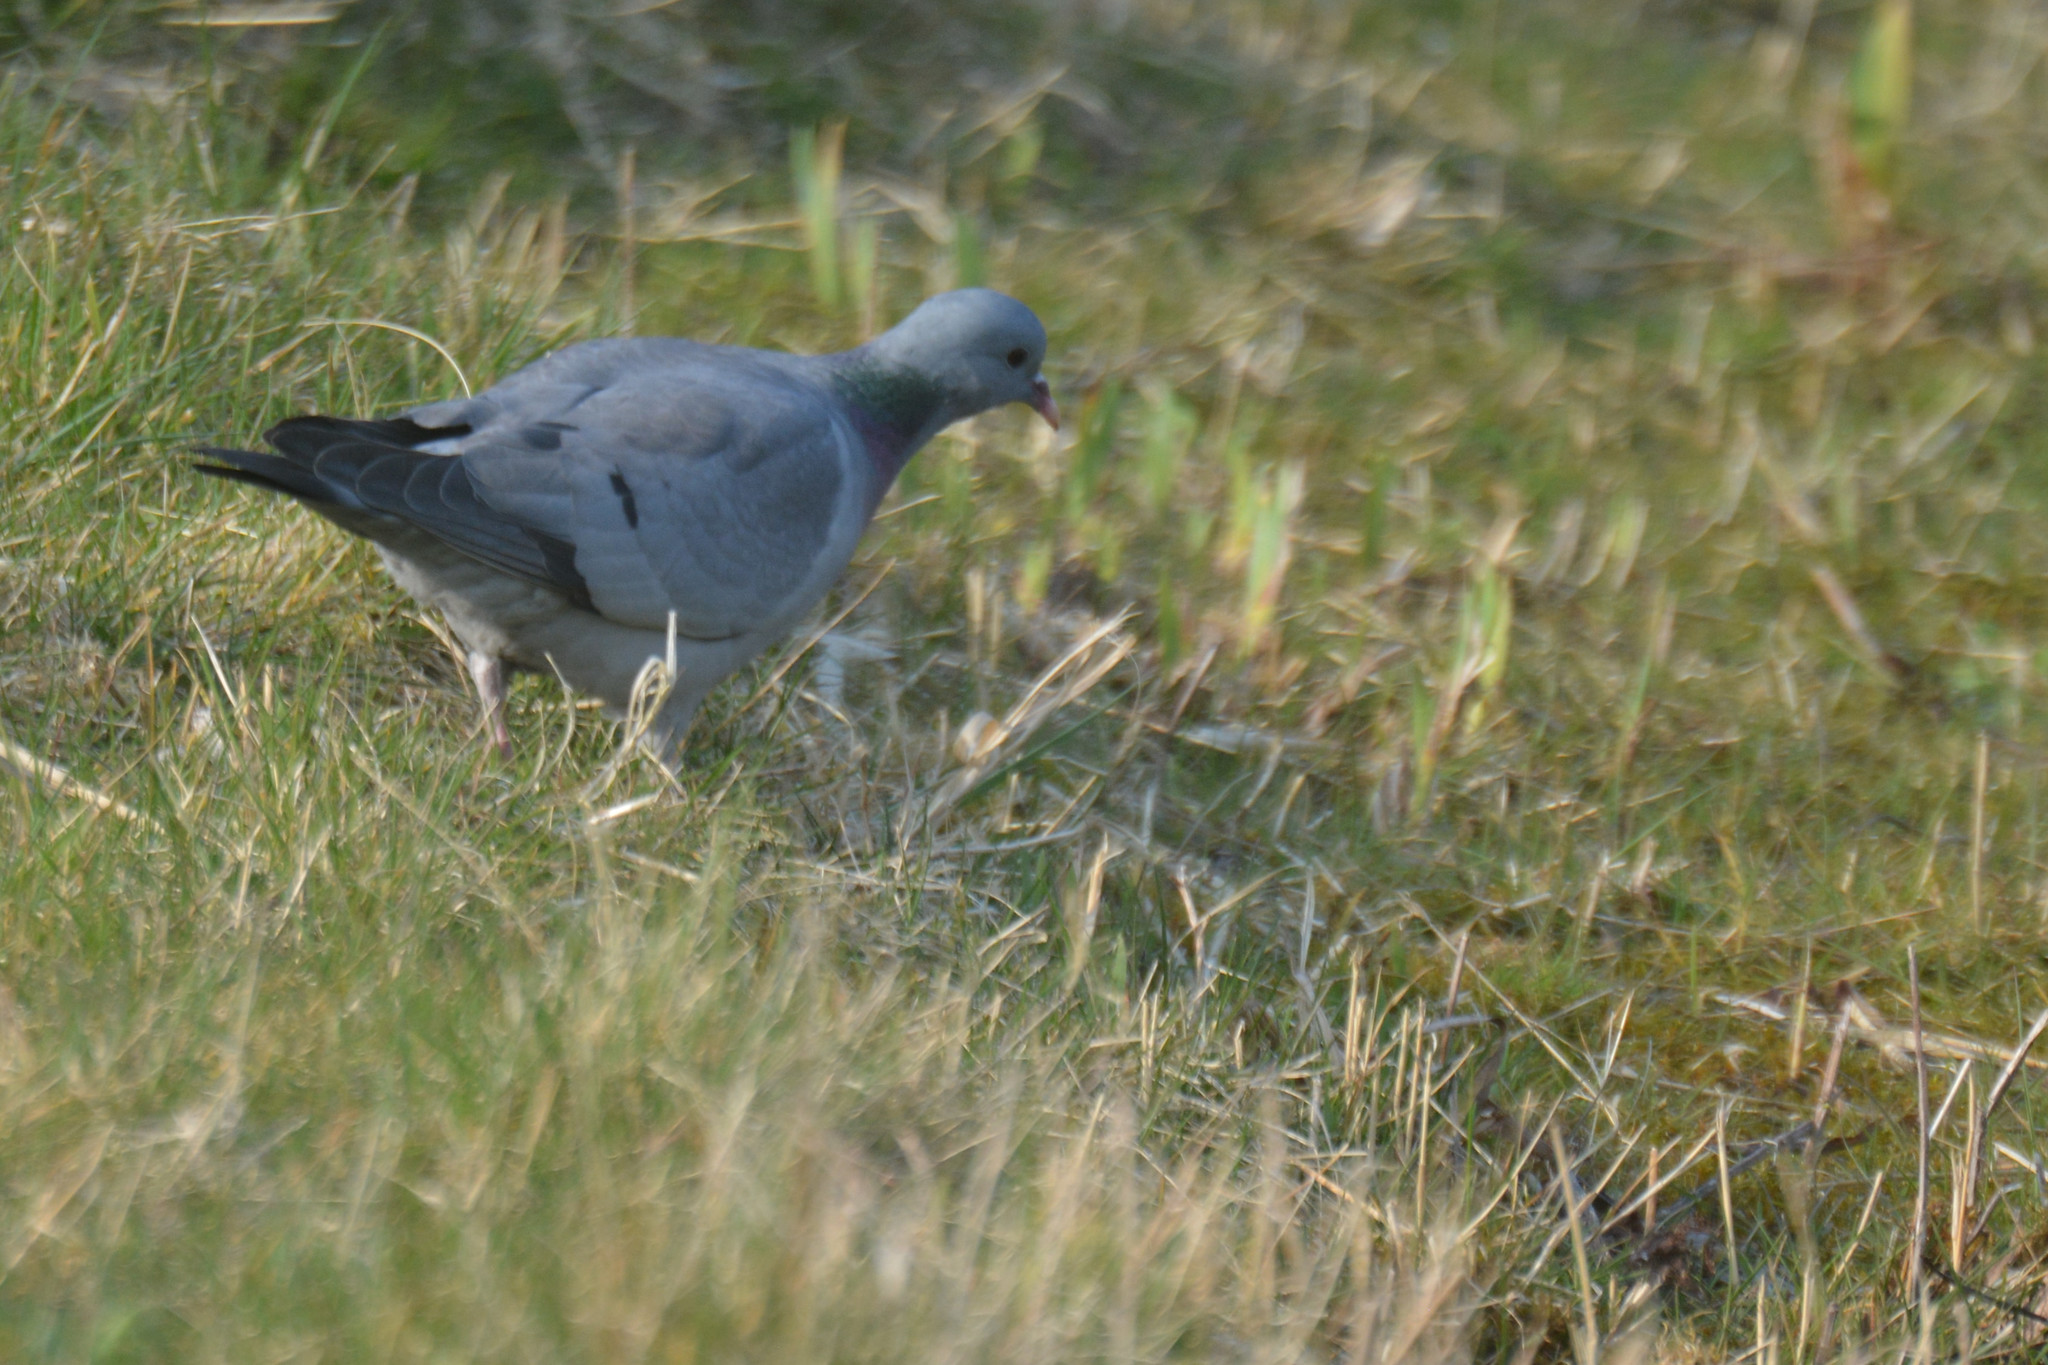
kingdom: Animalia
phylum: Chordata
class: Aves
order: Columbiformes
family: Columbidae
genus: Columba
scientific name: Columba oenas
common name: Stock dove
